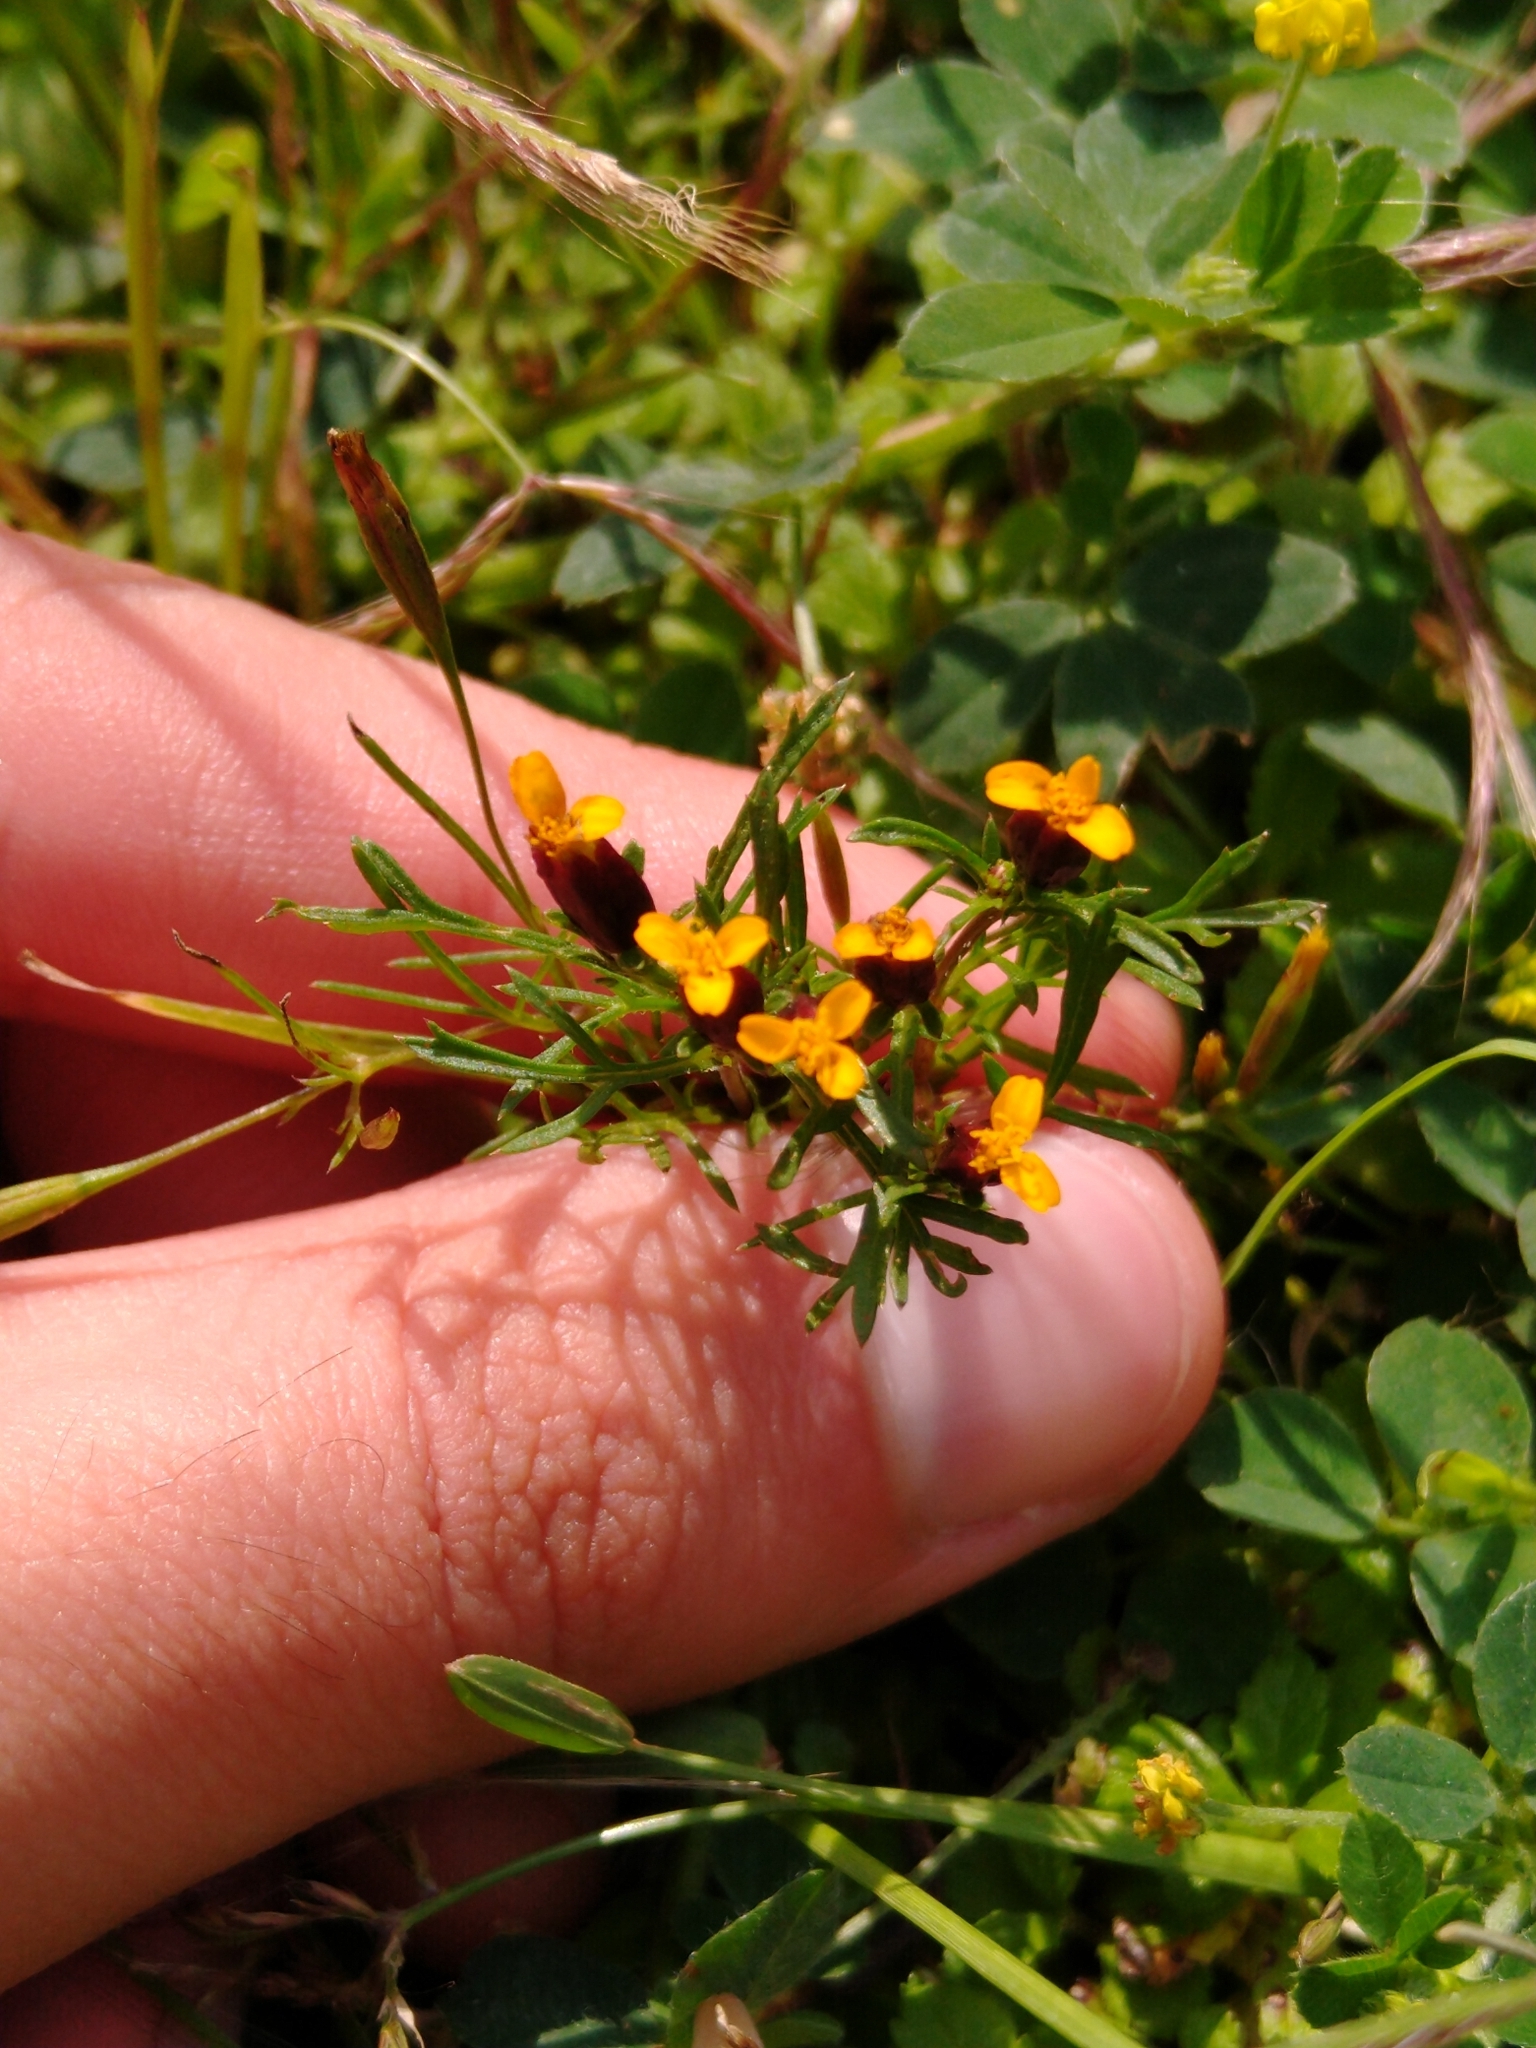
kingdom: Plantae
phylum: Tracheophyta
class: Magnoliopsida
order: Asterales
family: Asteraceae
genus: Dyssodia
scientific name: Dyssodia papposa
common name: Dogweed
